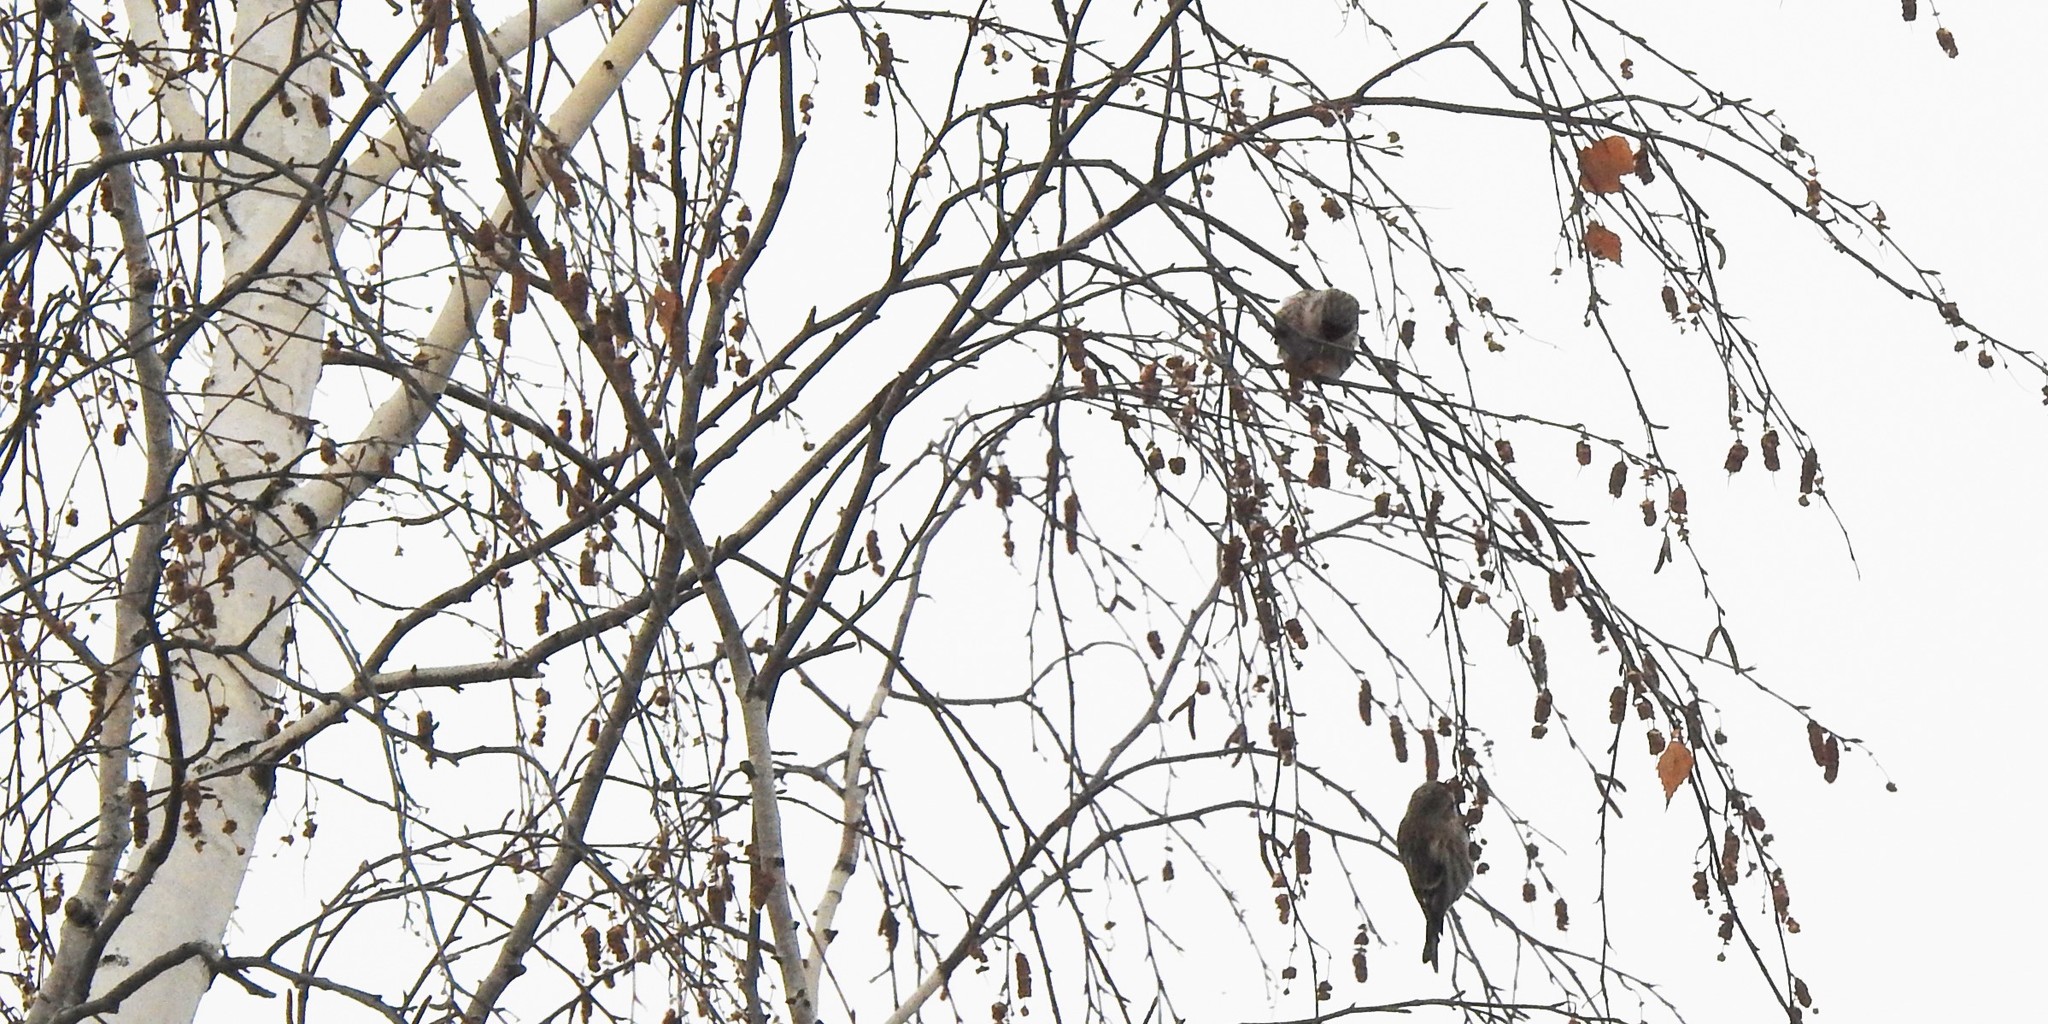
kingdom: Animalia
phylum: Chordata
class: Aves
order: Passeriformes
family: Fringillidae
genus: Acanthis
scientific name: Acanthis flammea
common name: Common redpoll
